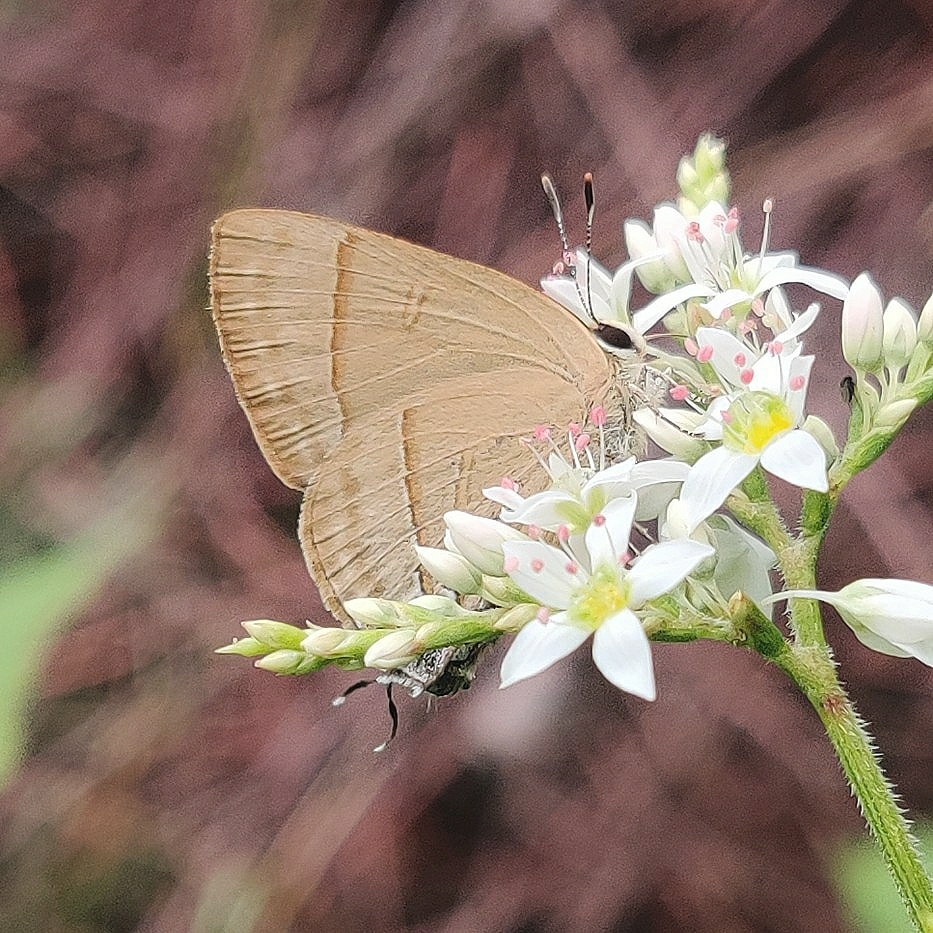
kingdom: Animalia
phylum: Arthropoda
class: Insecta
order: Lepidoptera
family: Lycaenidae
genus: Rapala
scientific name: Rapala nissa
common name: Common flash
